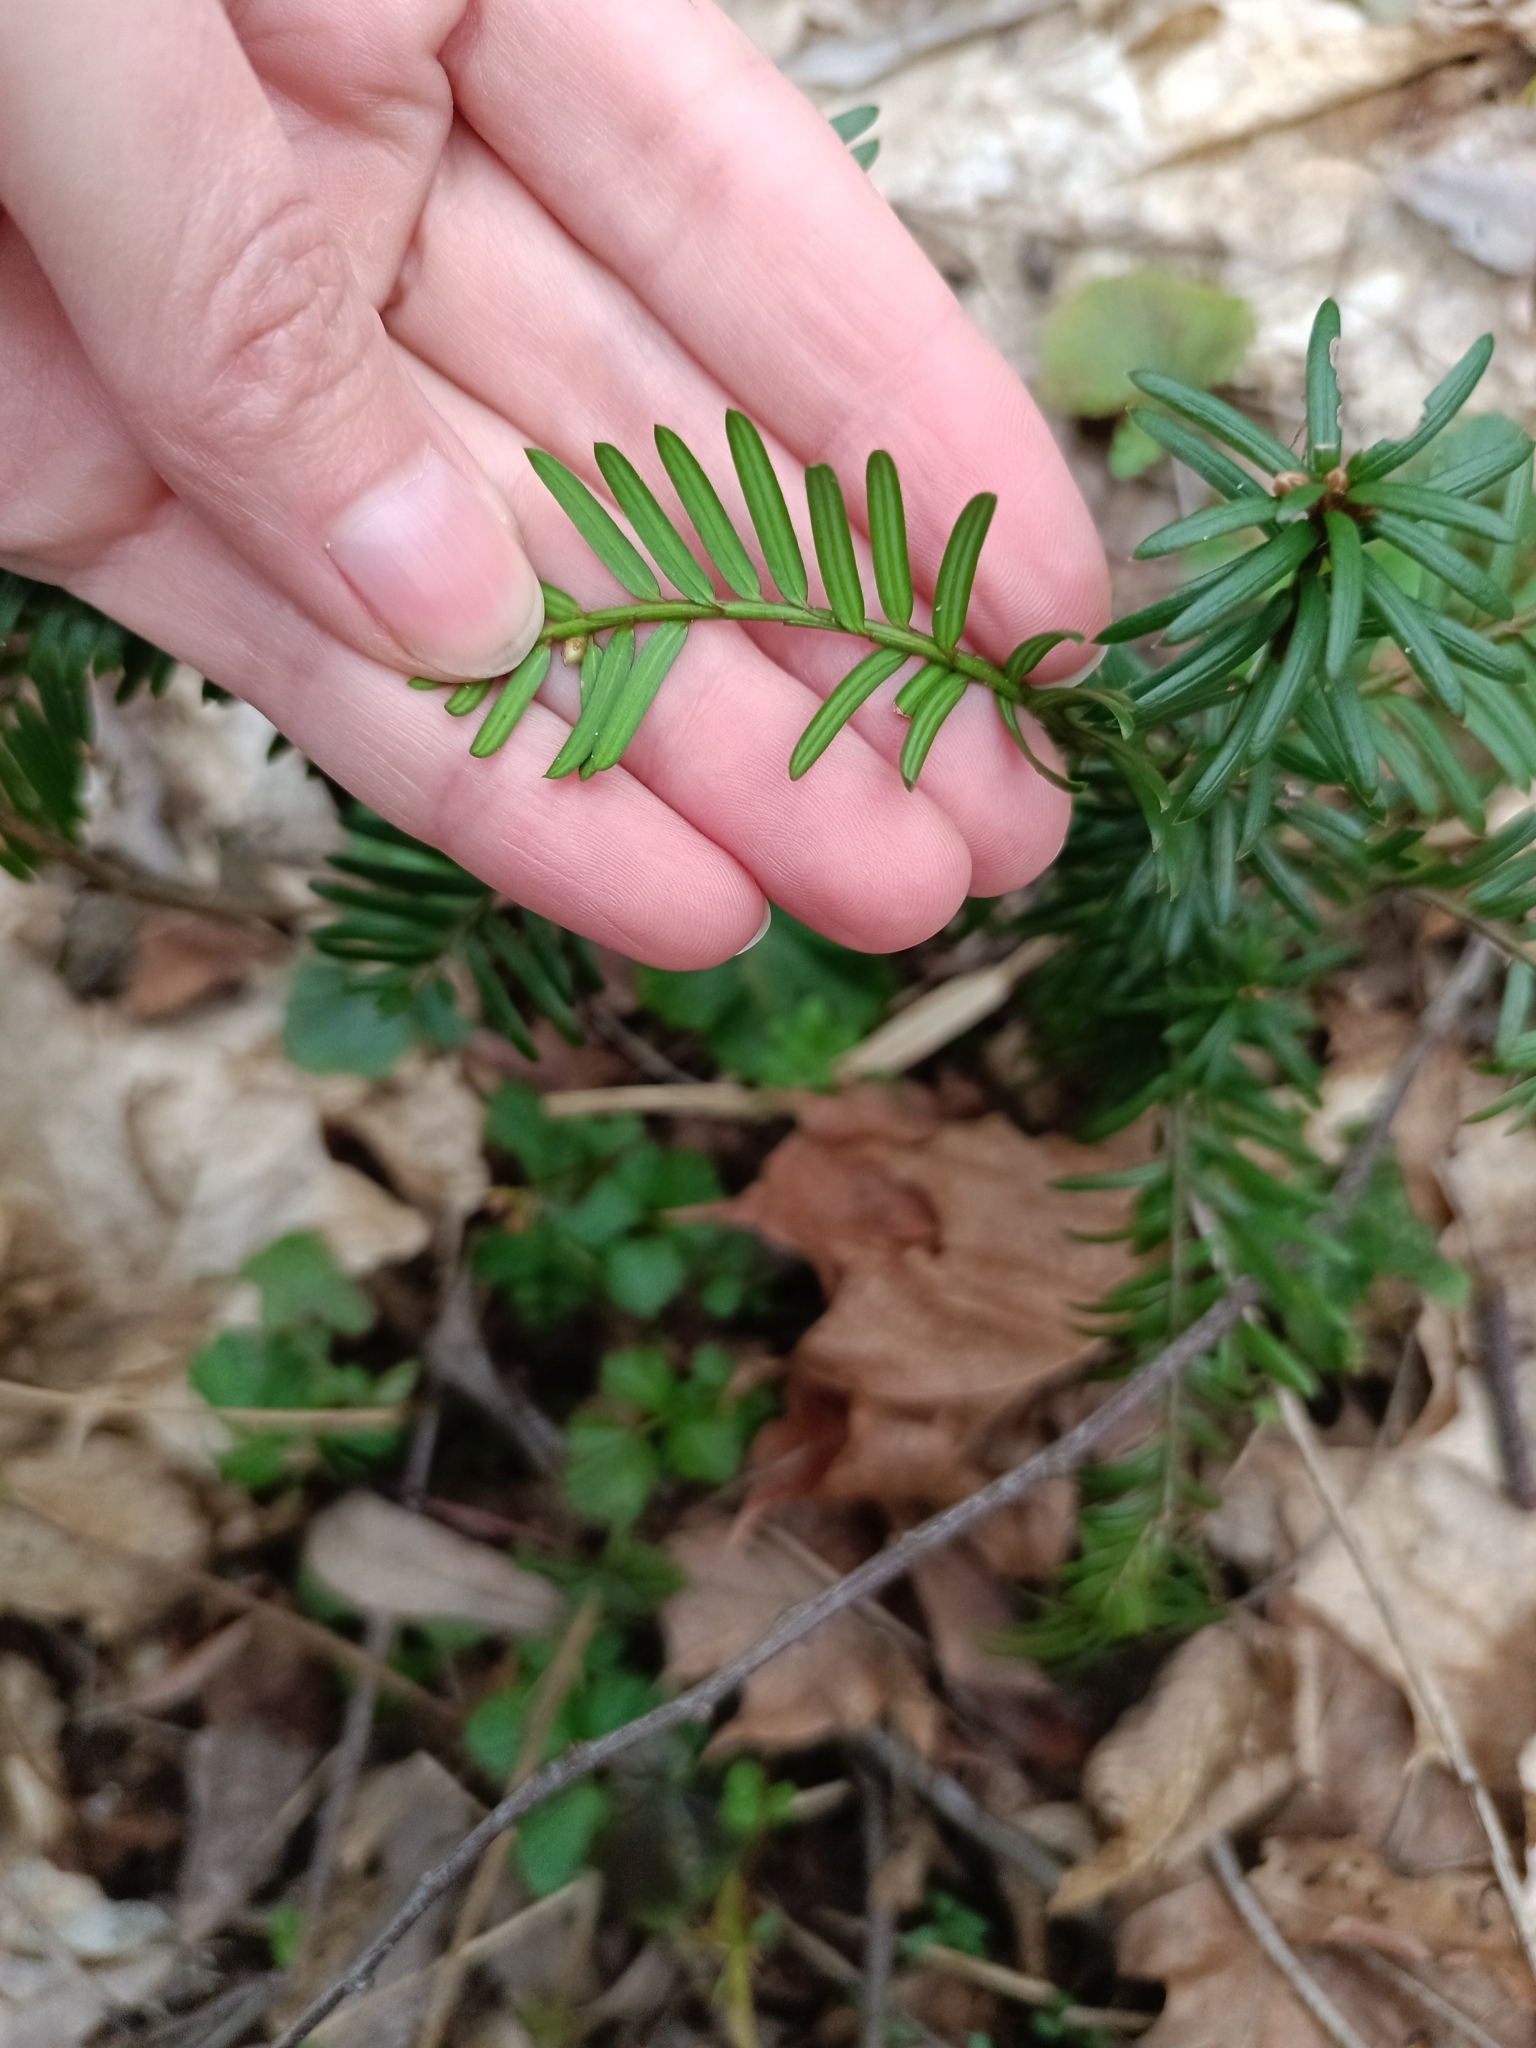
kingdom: Plantae
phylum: Tracheophyta
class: Pinopsida
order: Pinales
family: Taxaceae
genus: Taxus
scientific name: Taxus baccata
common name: Yew
